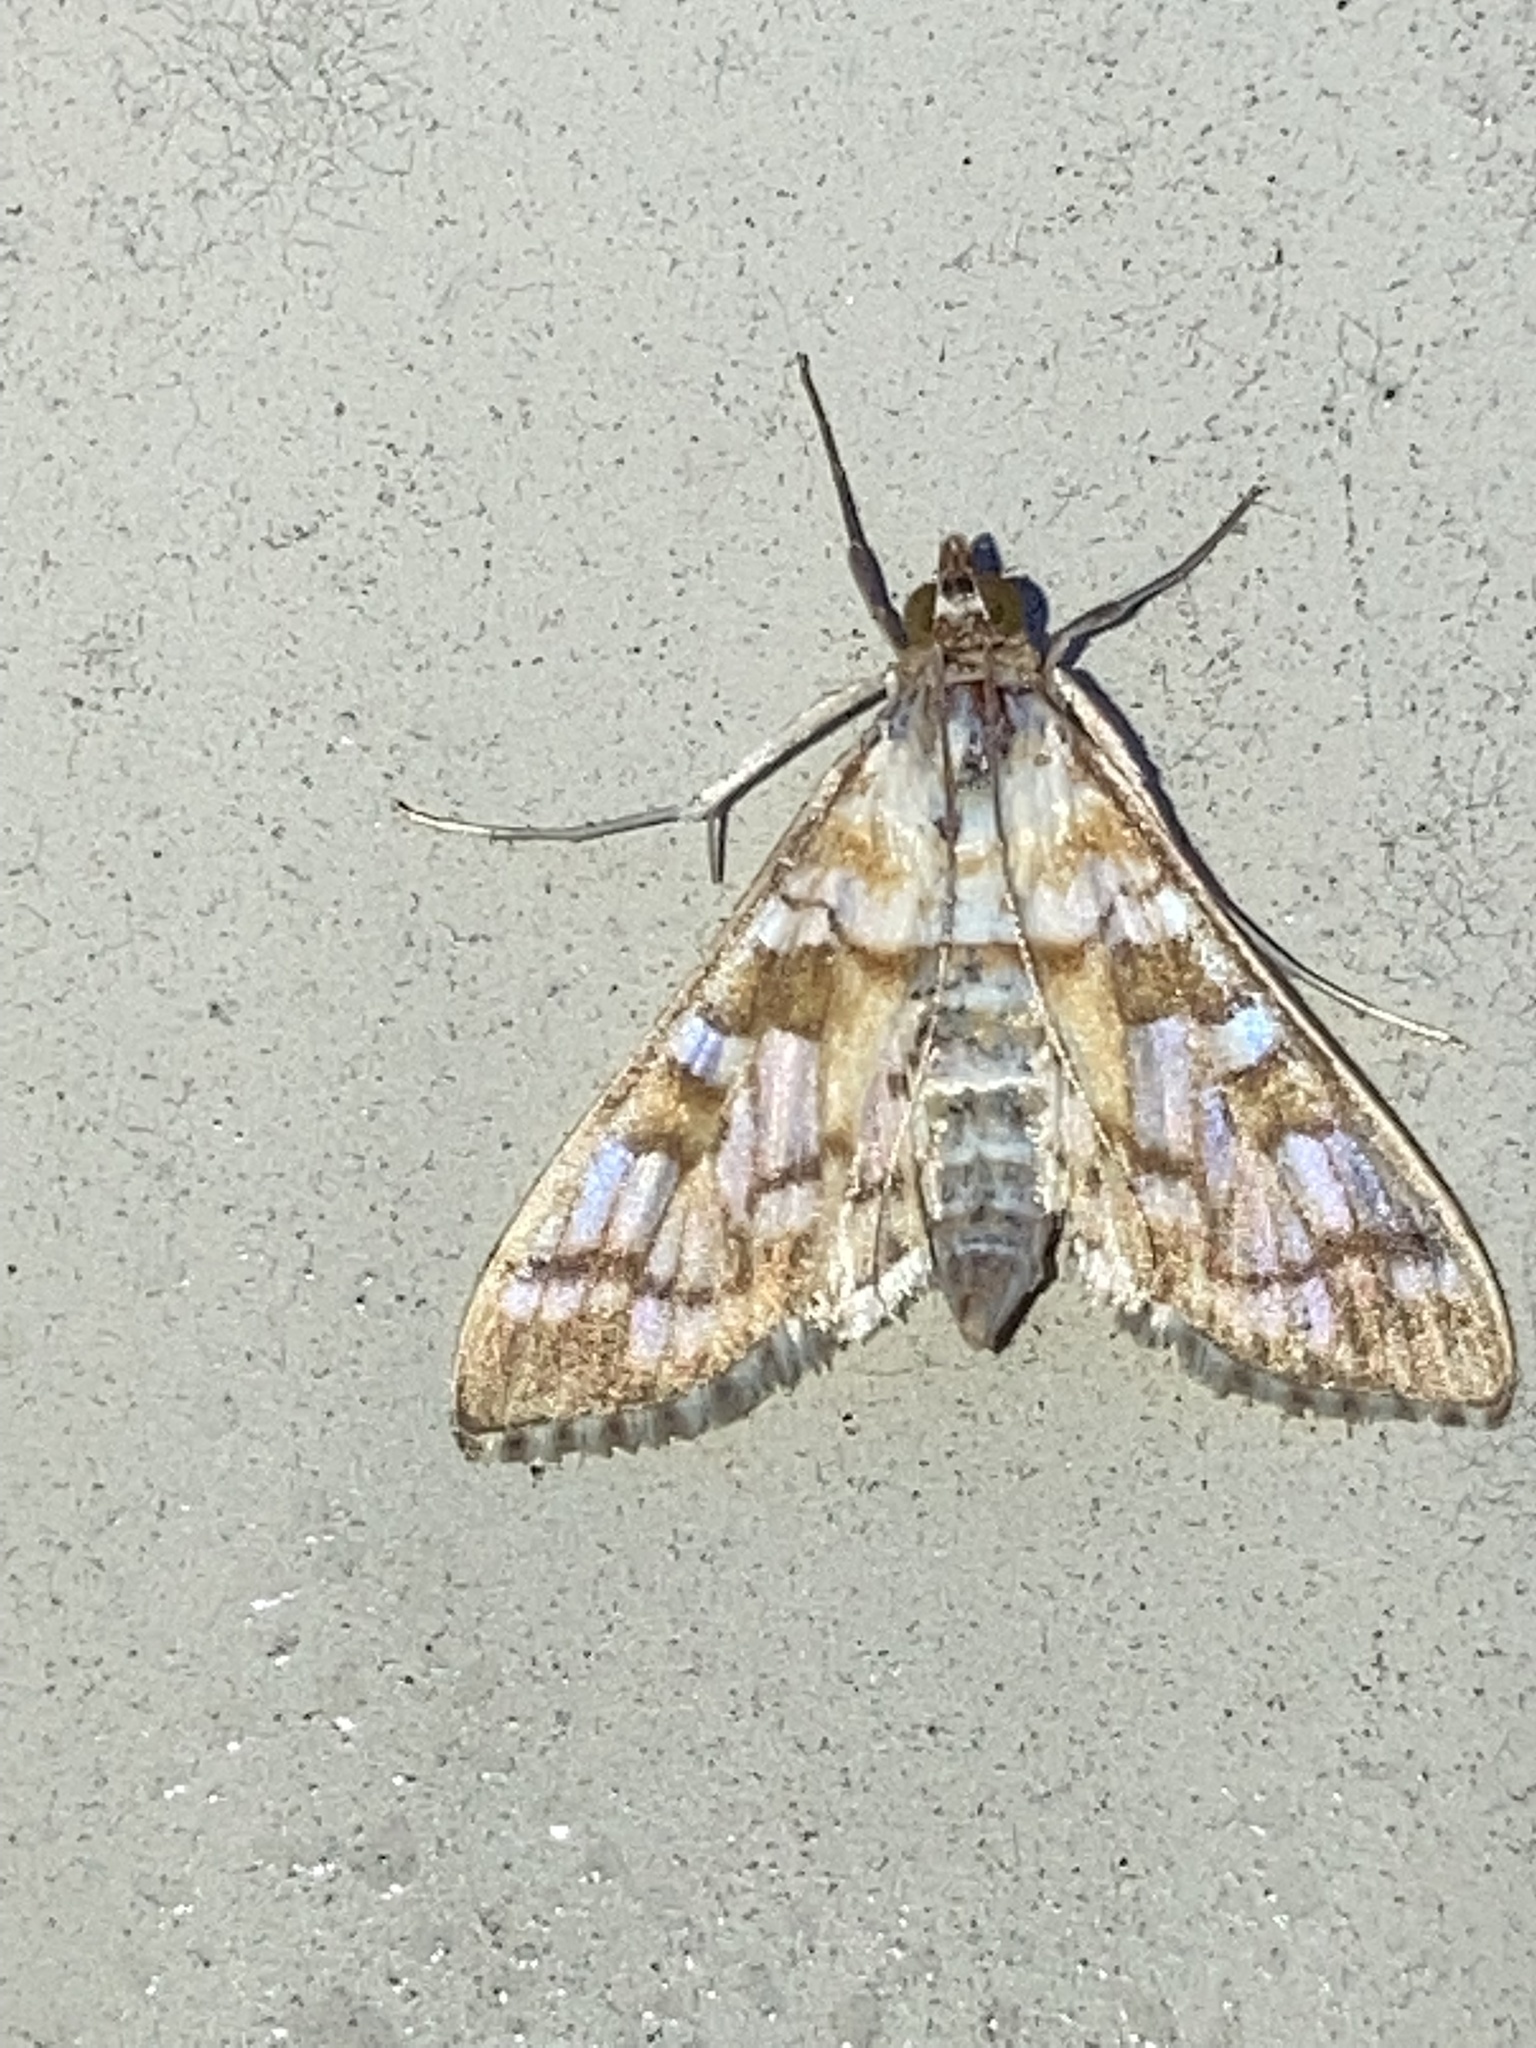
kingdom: Animalia
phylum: Arthropoda
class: Insecta
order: Lepidoptera
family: Crambidae
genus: Epipagis
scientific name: Epipagis fenestralis
